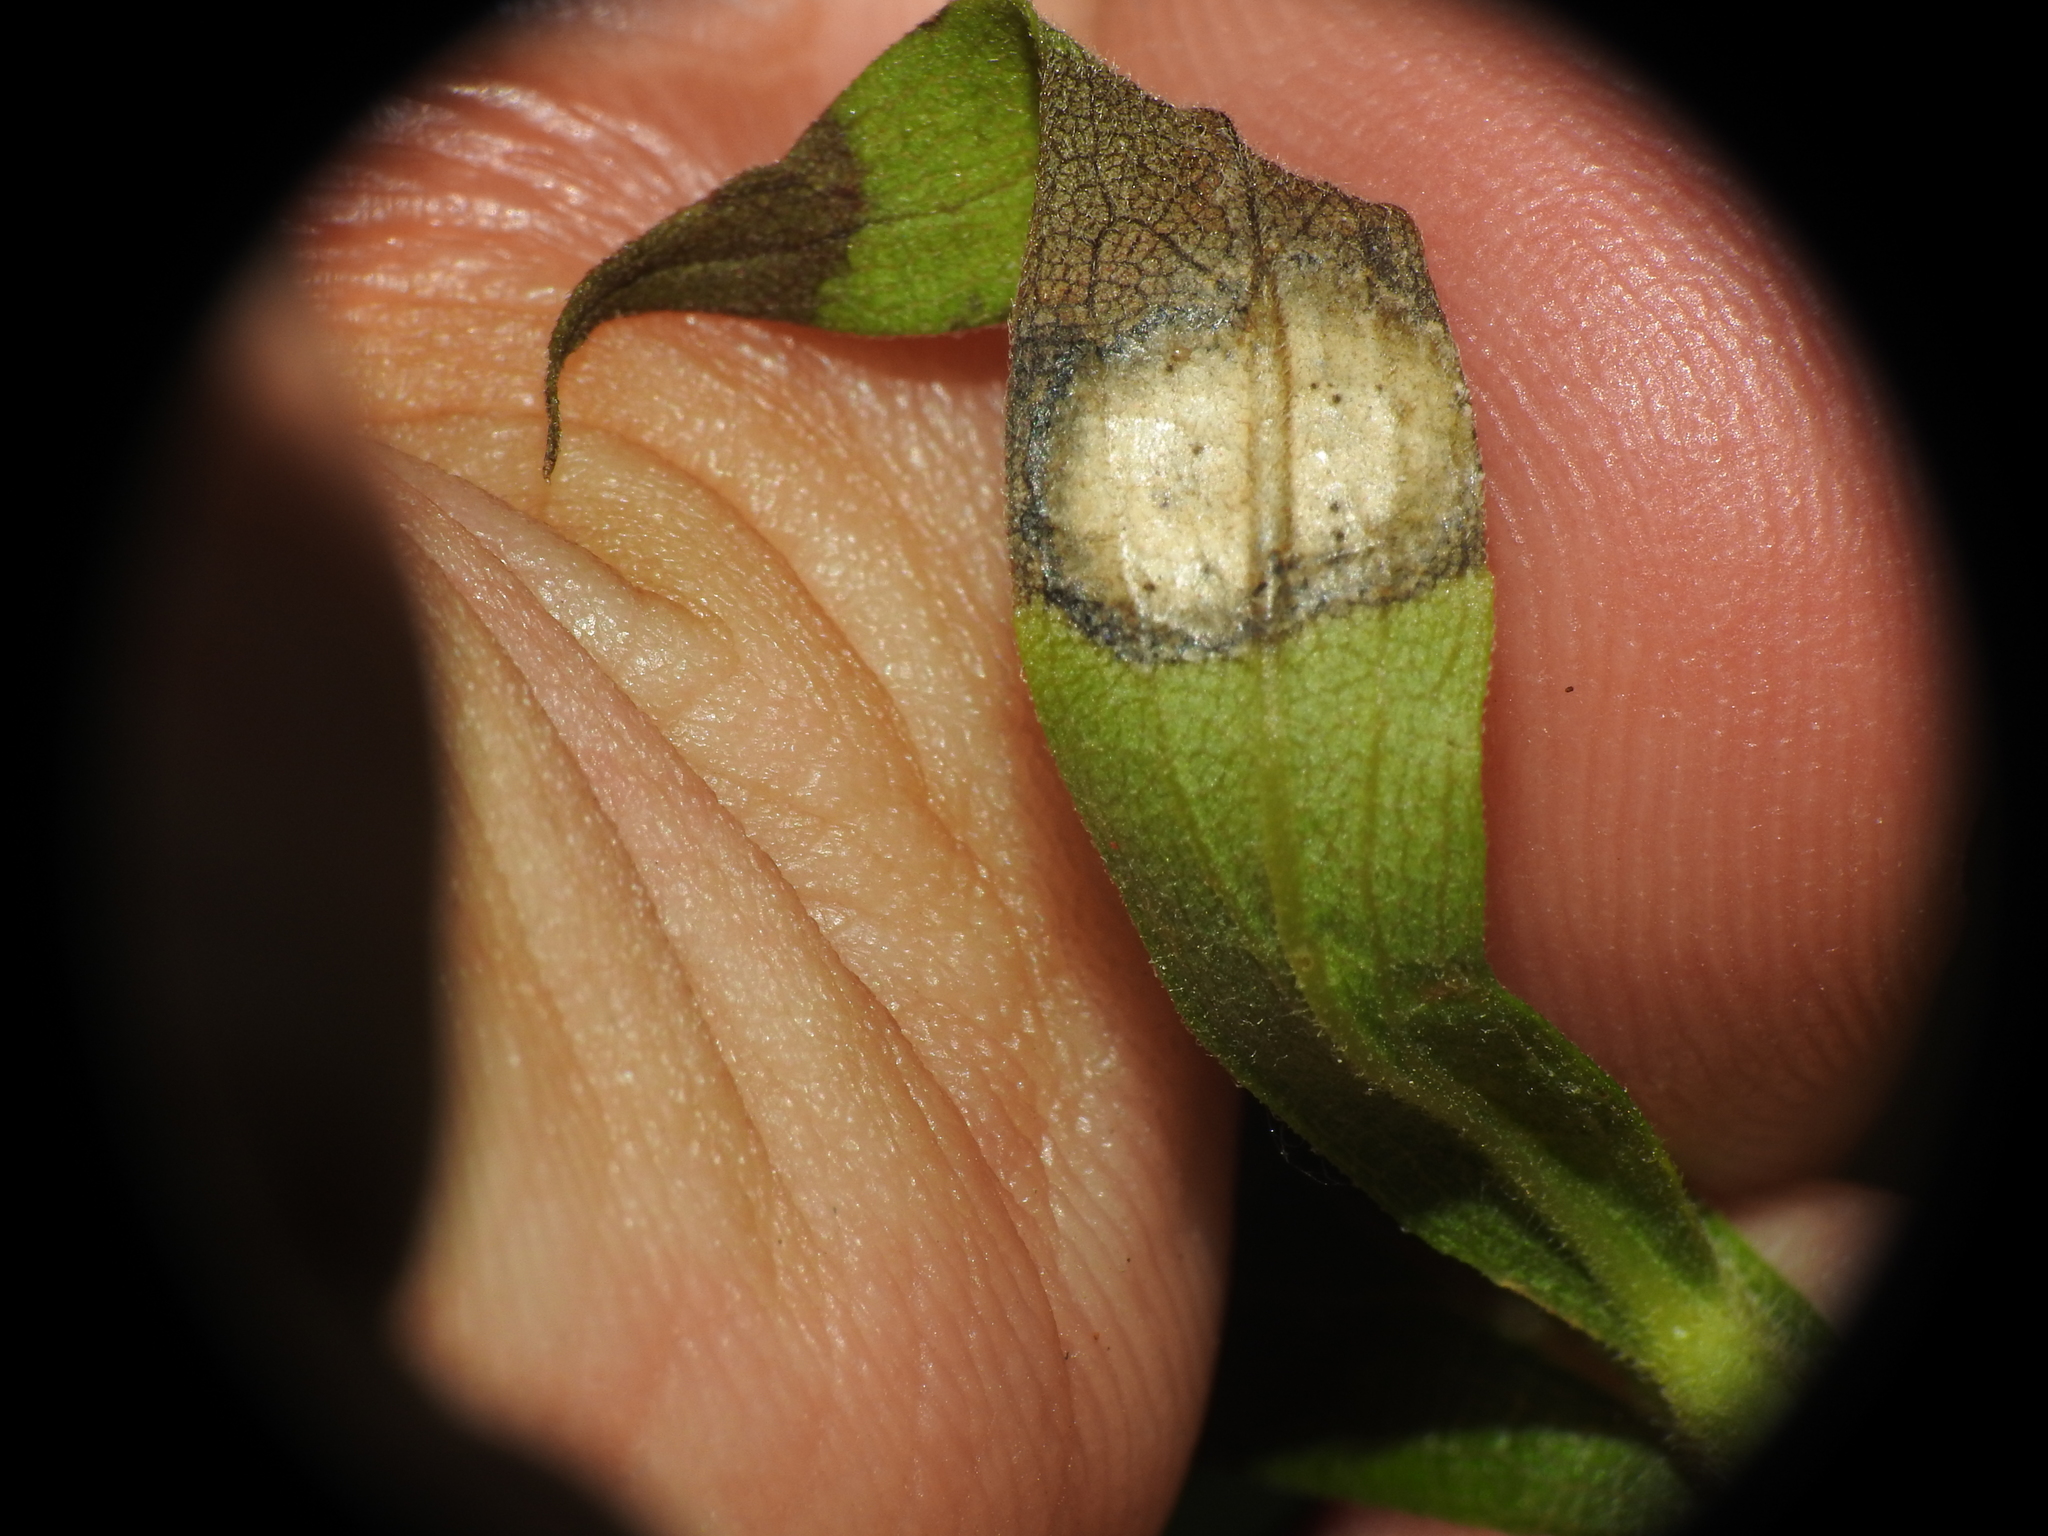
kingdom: Animalia
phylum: Arthropoda
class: Insecta
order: Diptera
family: Cecidomyiidae
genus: Asteromyia
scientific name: Asteromyia carbonifera
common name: Carbonifera goldenrod gall midge
